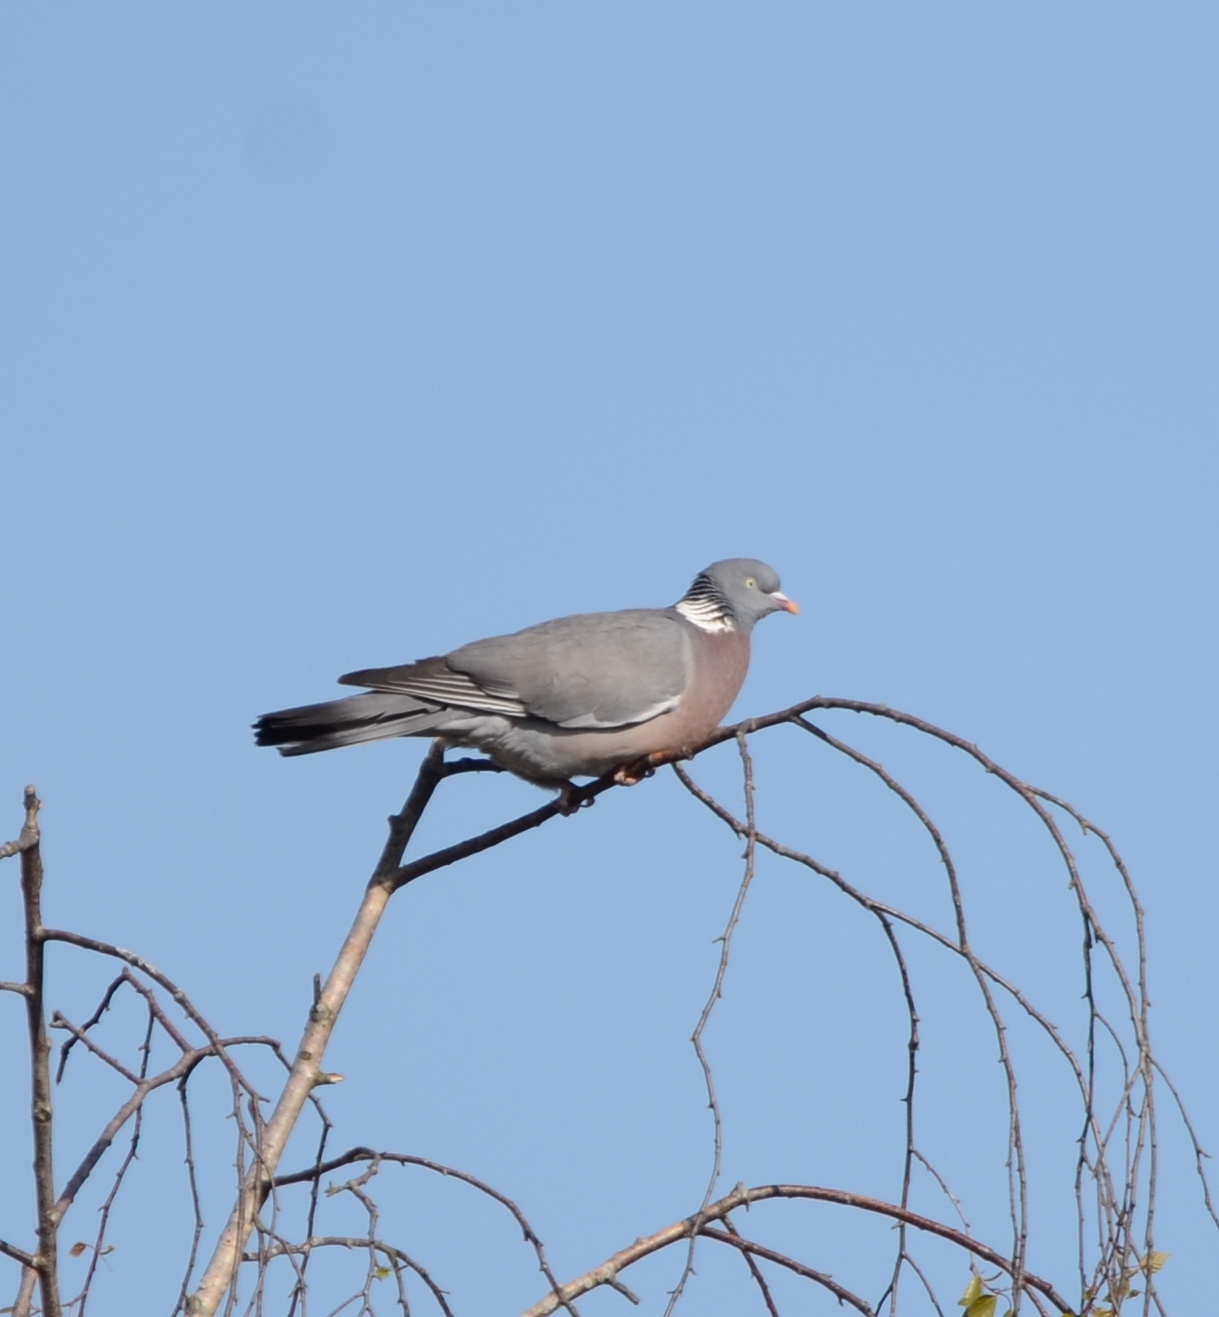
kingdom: Animalia
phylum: Chordata
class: Aves
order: Columbiformes
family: Columbidae
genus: Columba
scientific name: Columba palumbus
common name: Common wood pigeon
